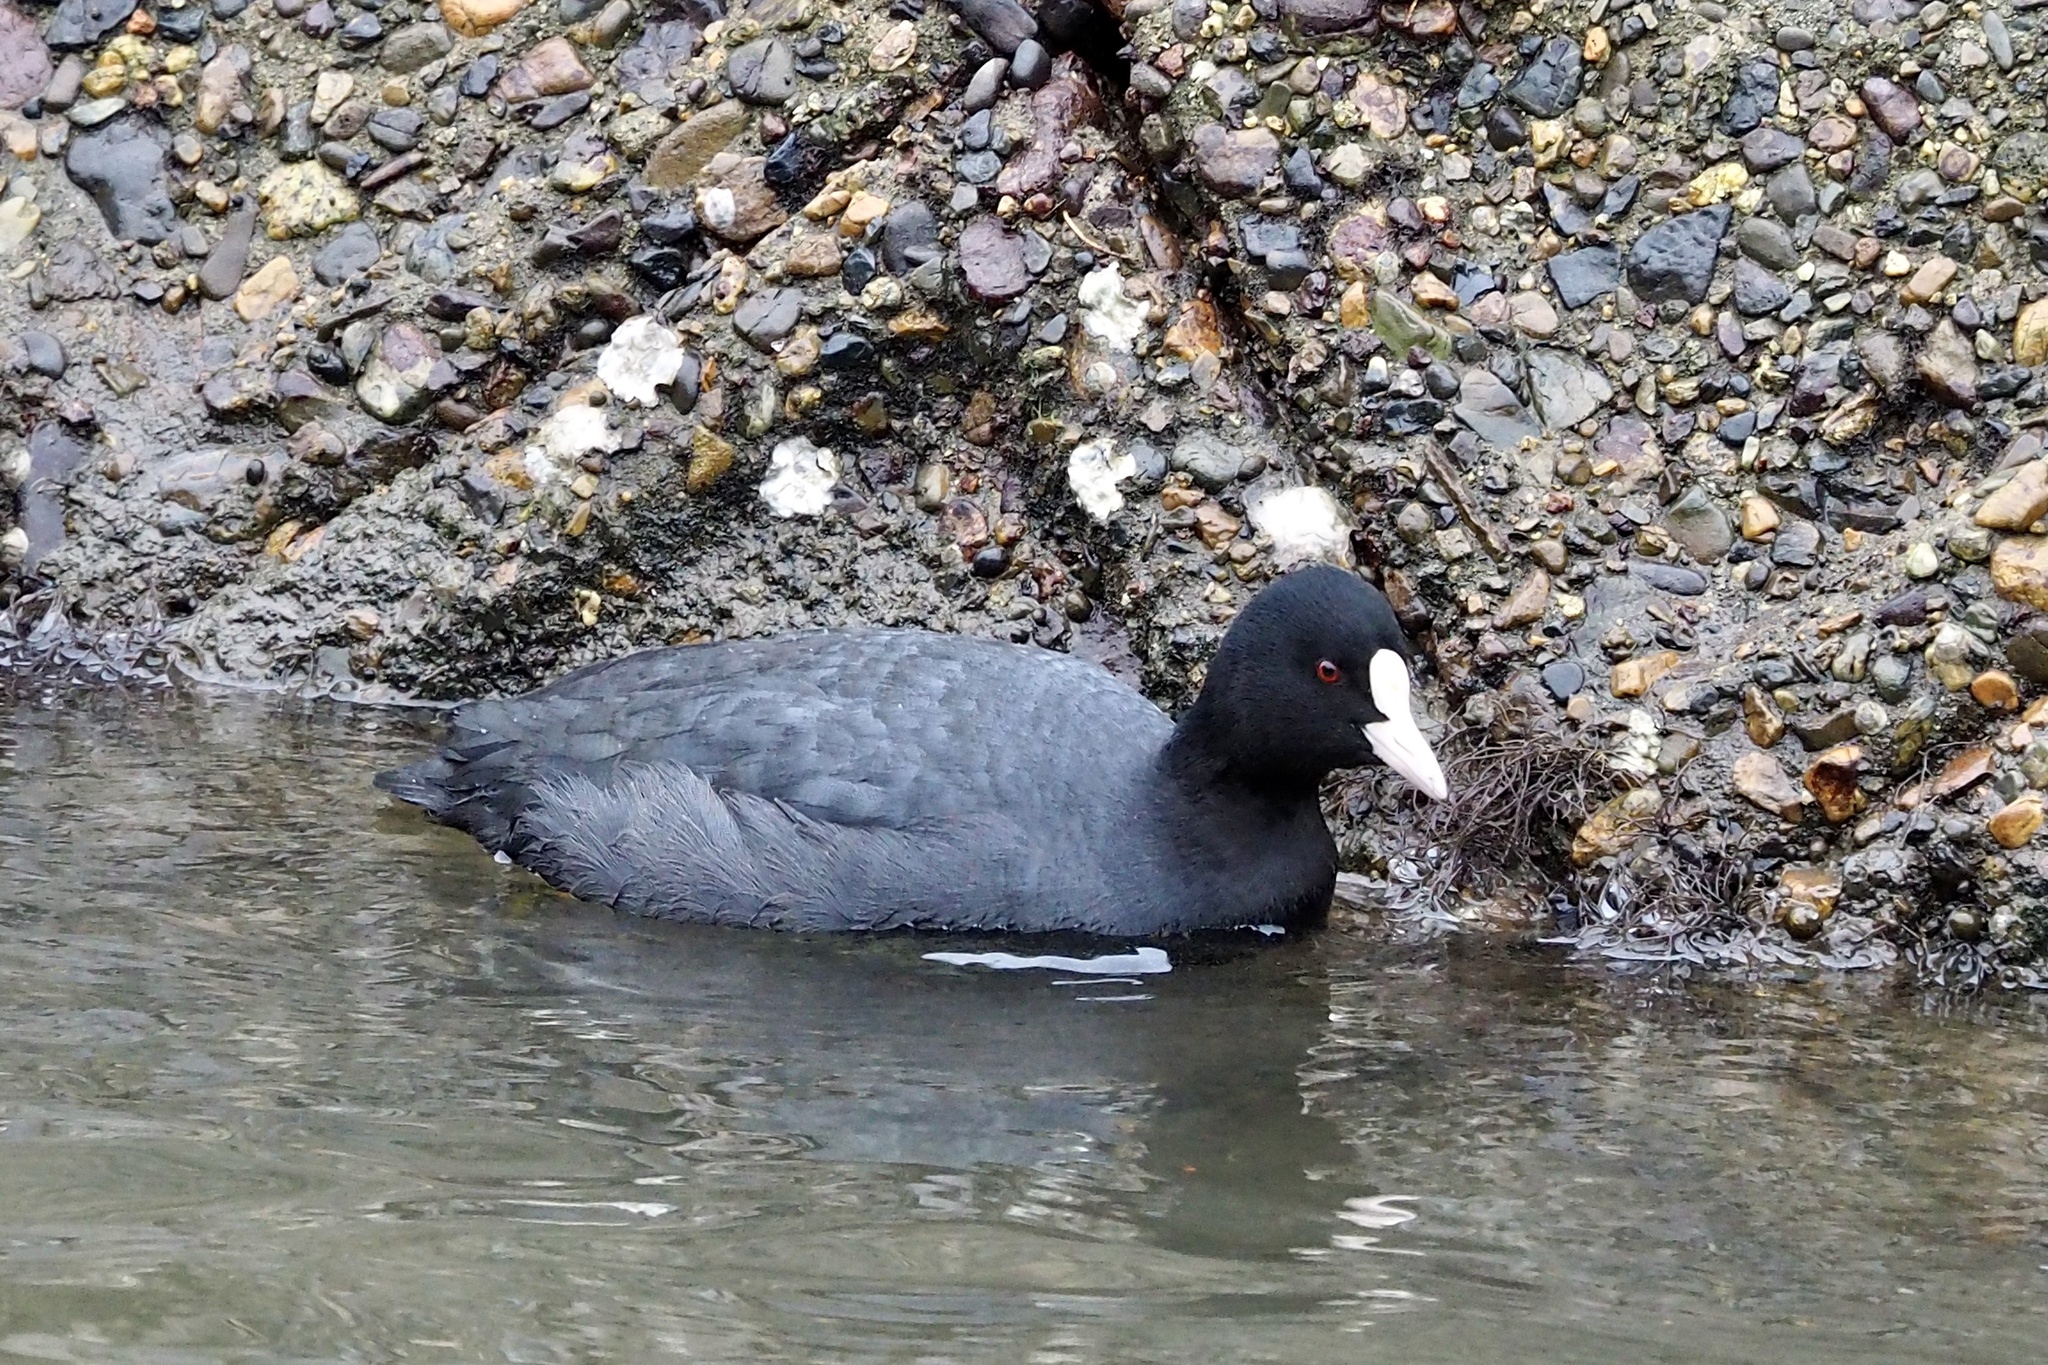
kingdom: Animalia
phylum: Chordata
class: Aves
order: Gruiformes
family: Rallidae
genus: Fulica
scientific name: Fulica atra
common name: Eurasian coot
